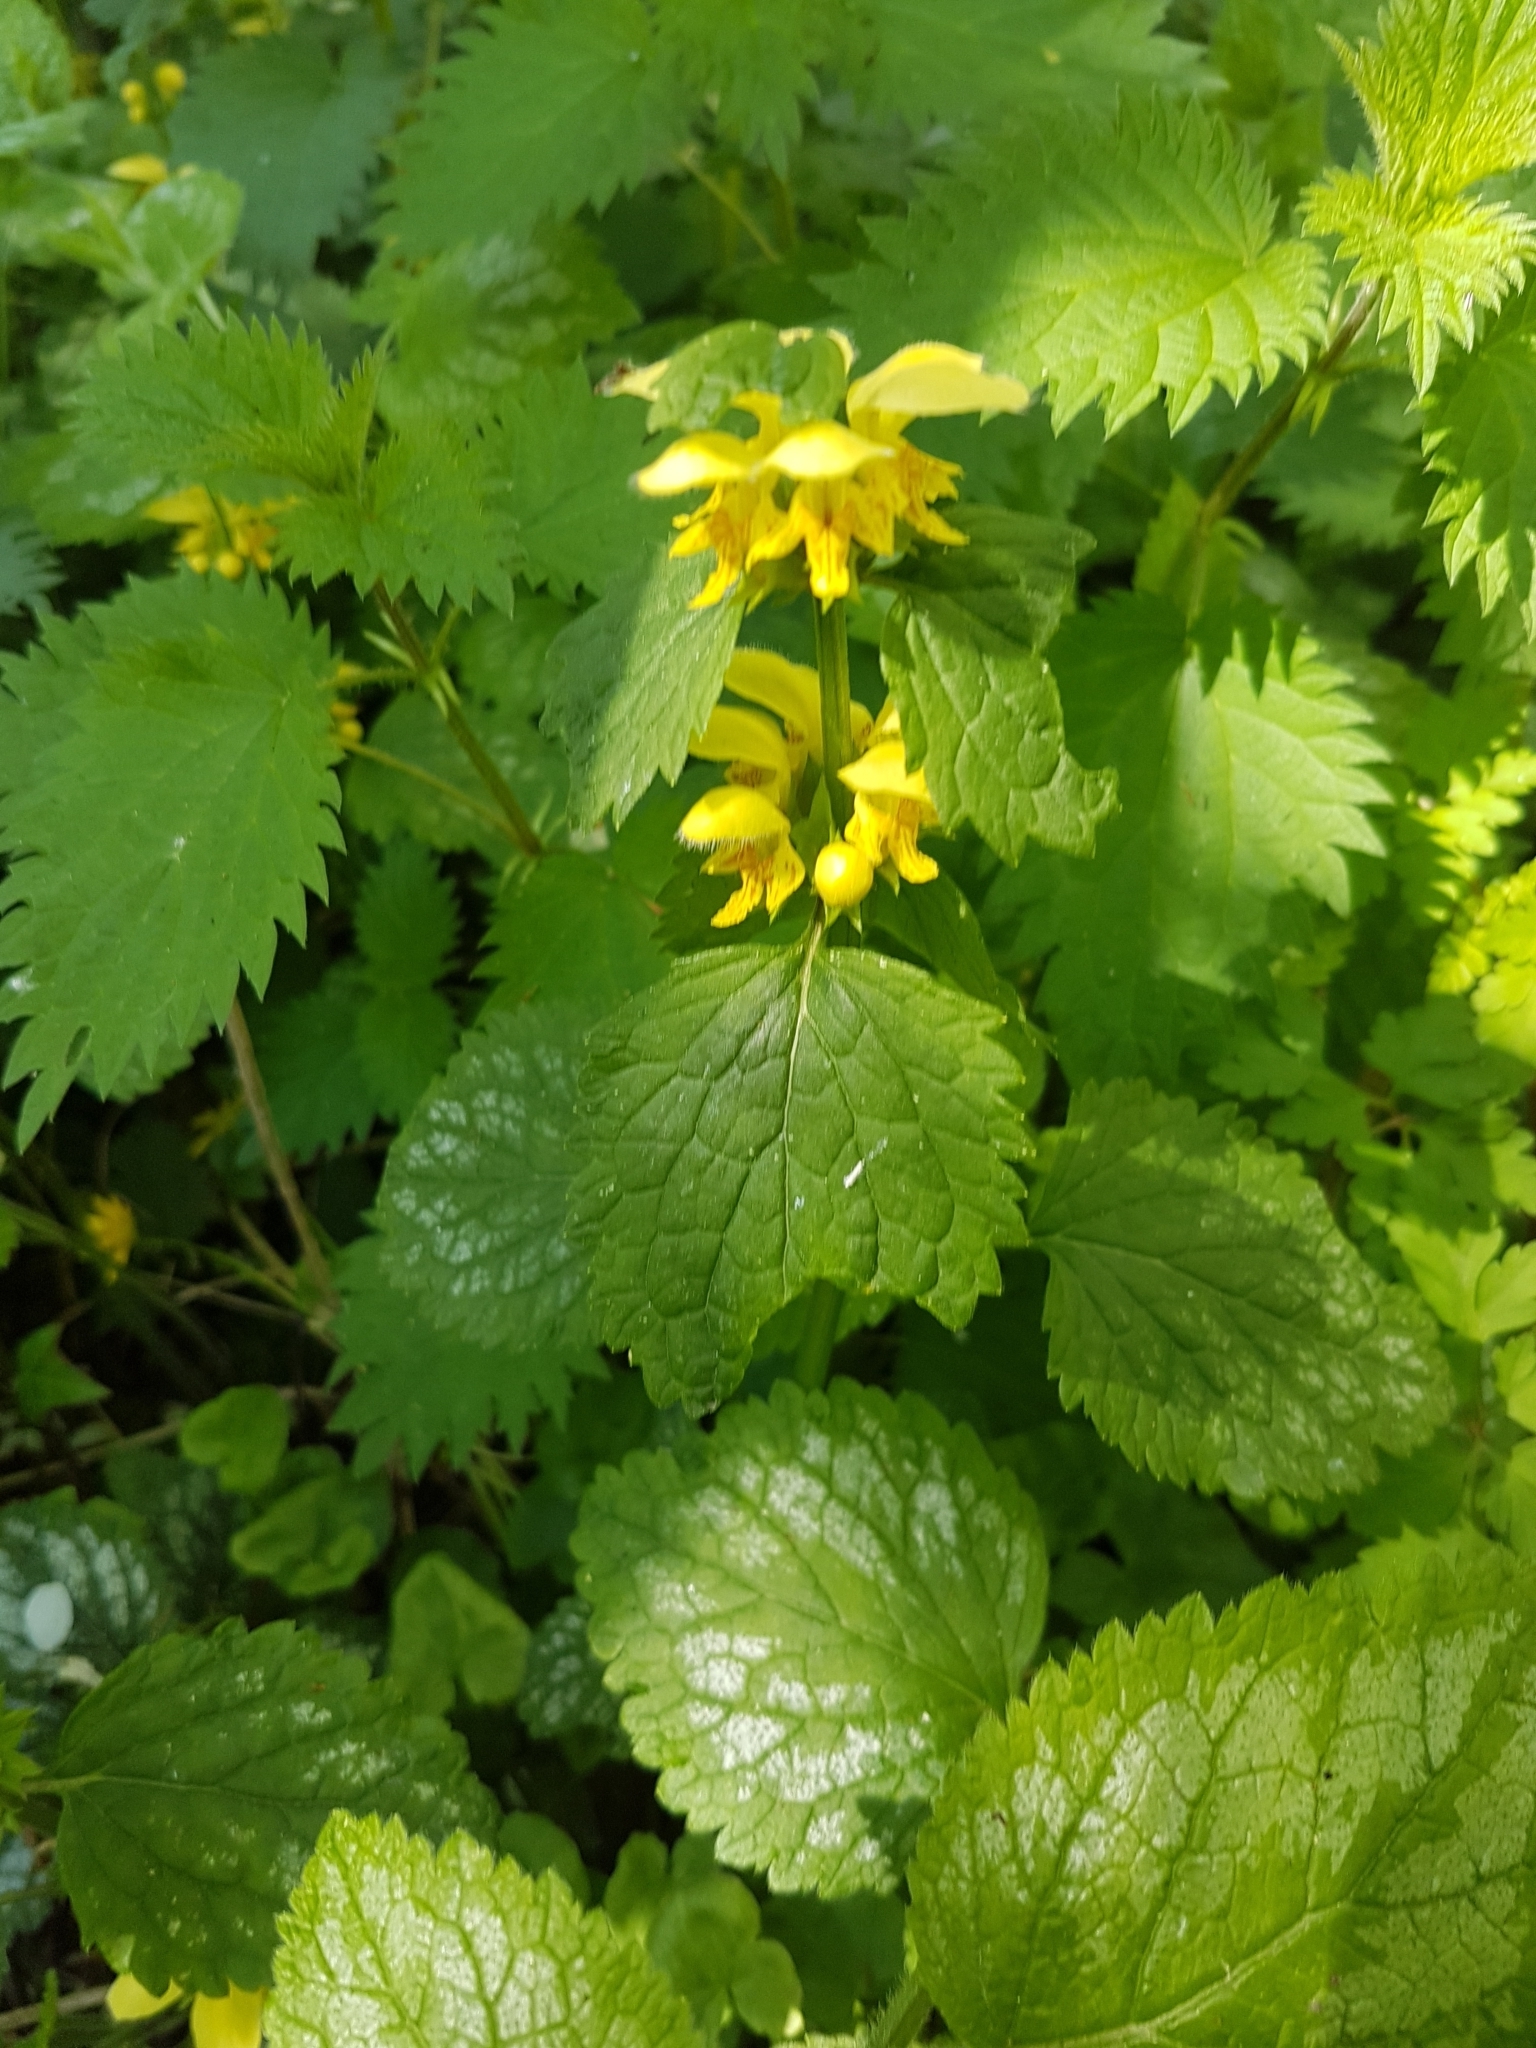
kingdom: Plantae
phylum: Tracheophyta
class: Magnoliopsida
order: Lamiales
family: Lamiaceae
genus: Lamium
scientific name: Lamium galeobdolon
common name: Yellow archangel
